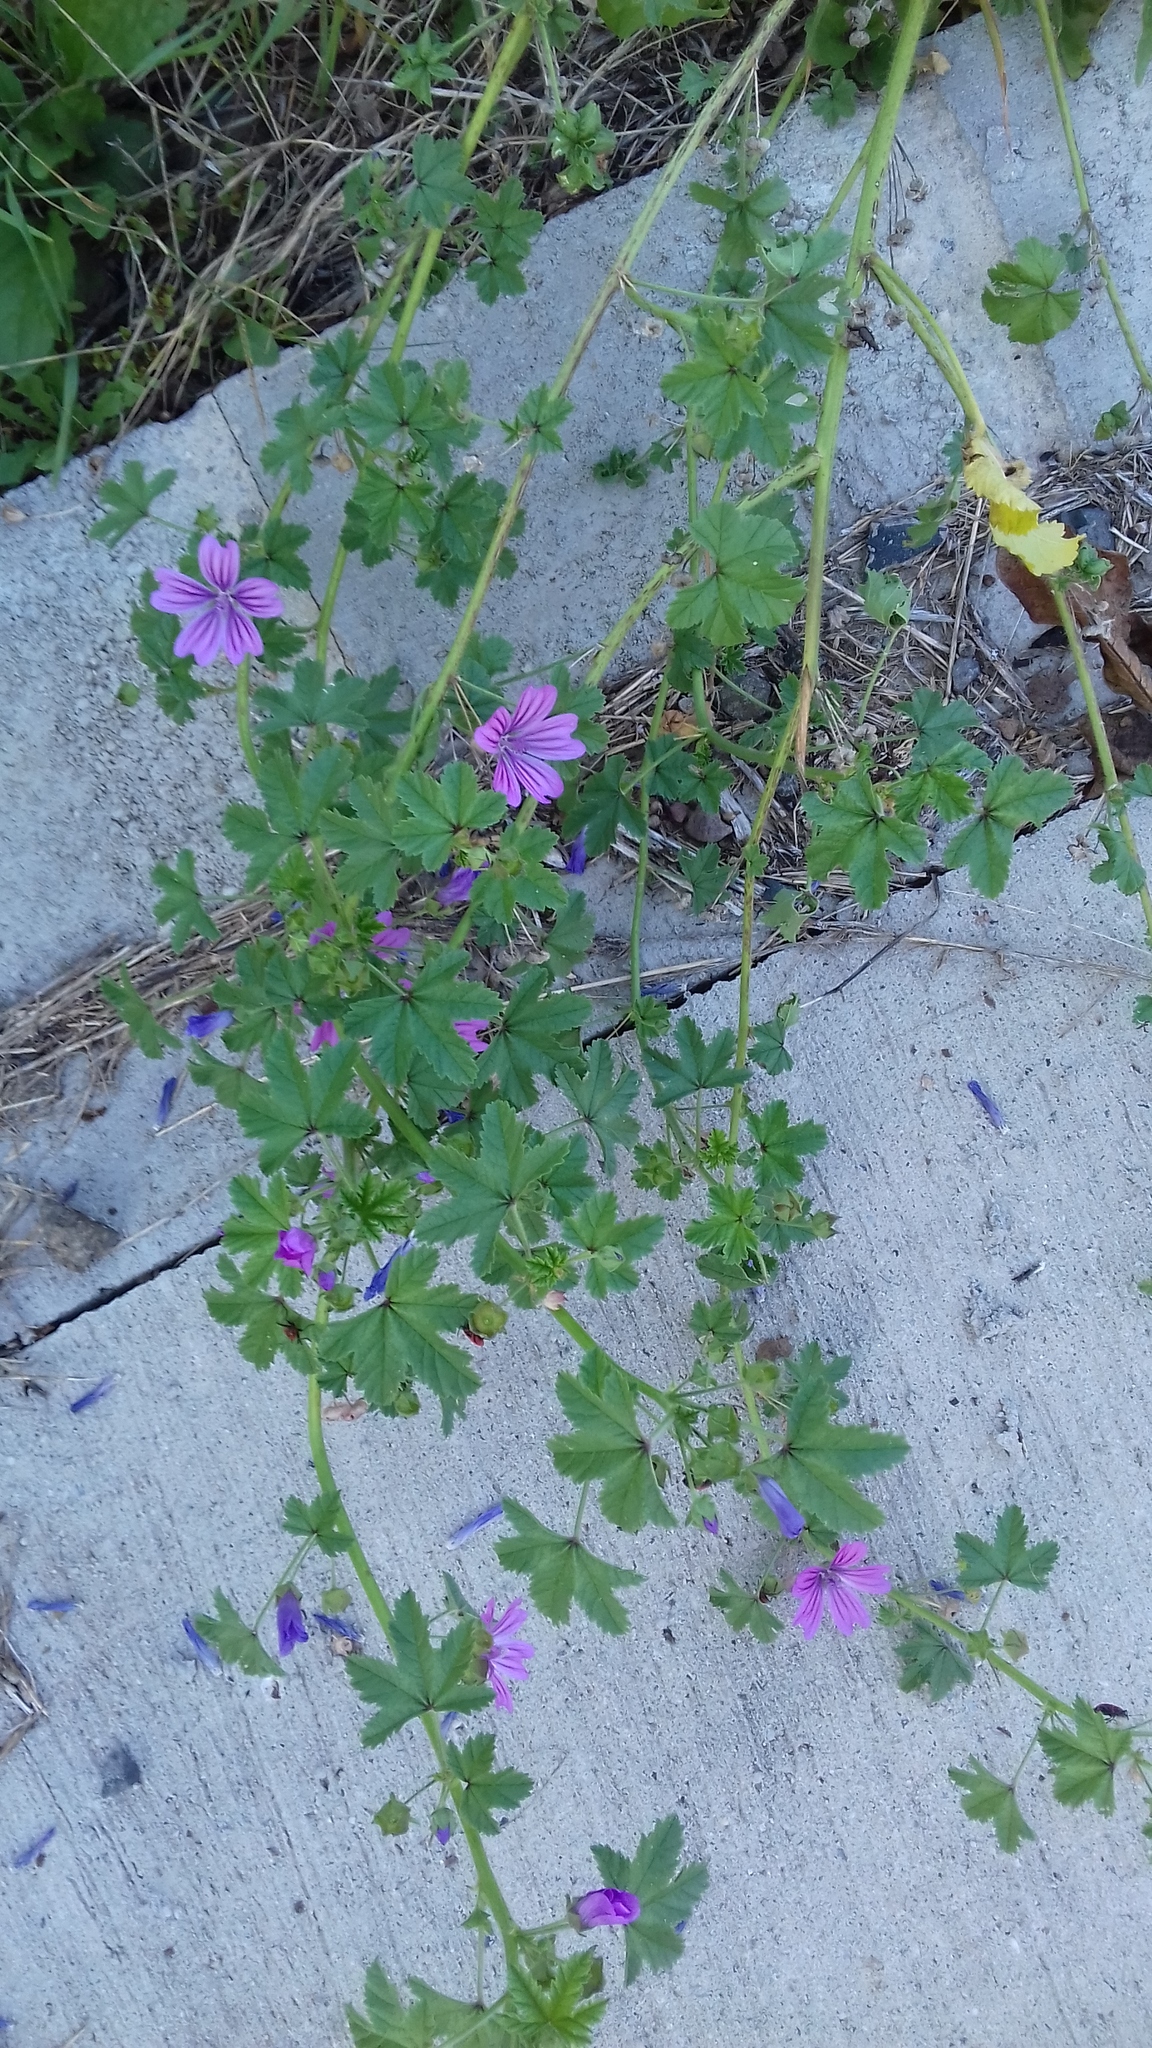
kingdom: Plantae
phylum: Tracheophyta
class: Magnoliopsida
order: Malvales
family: Malvaceae
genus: Malva
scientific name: Malva sylvestris
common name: Common mallow
